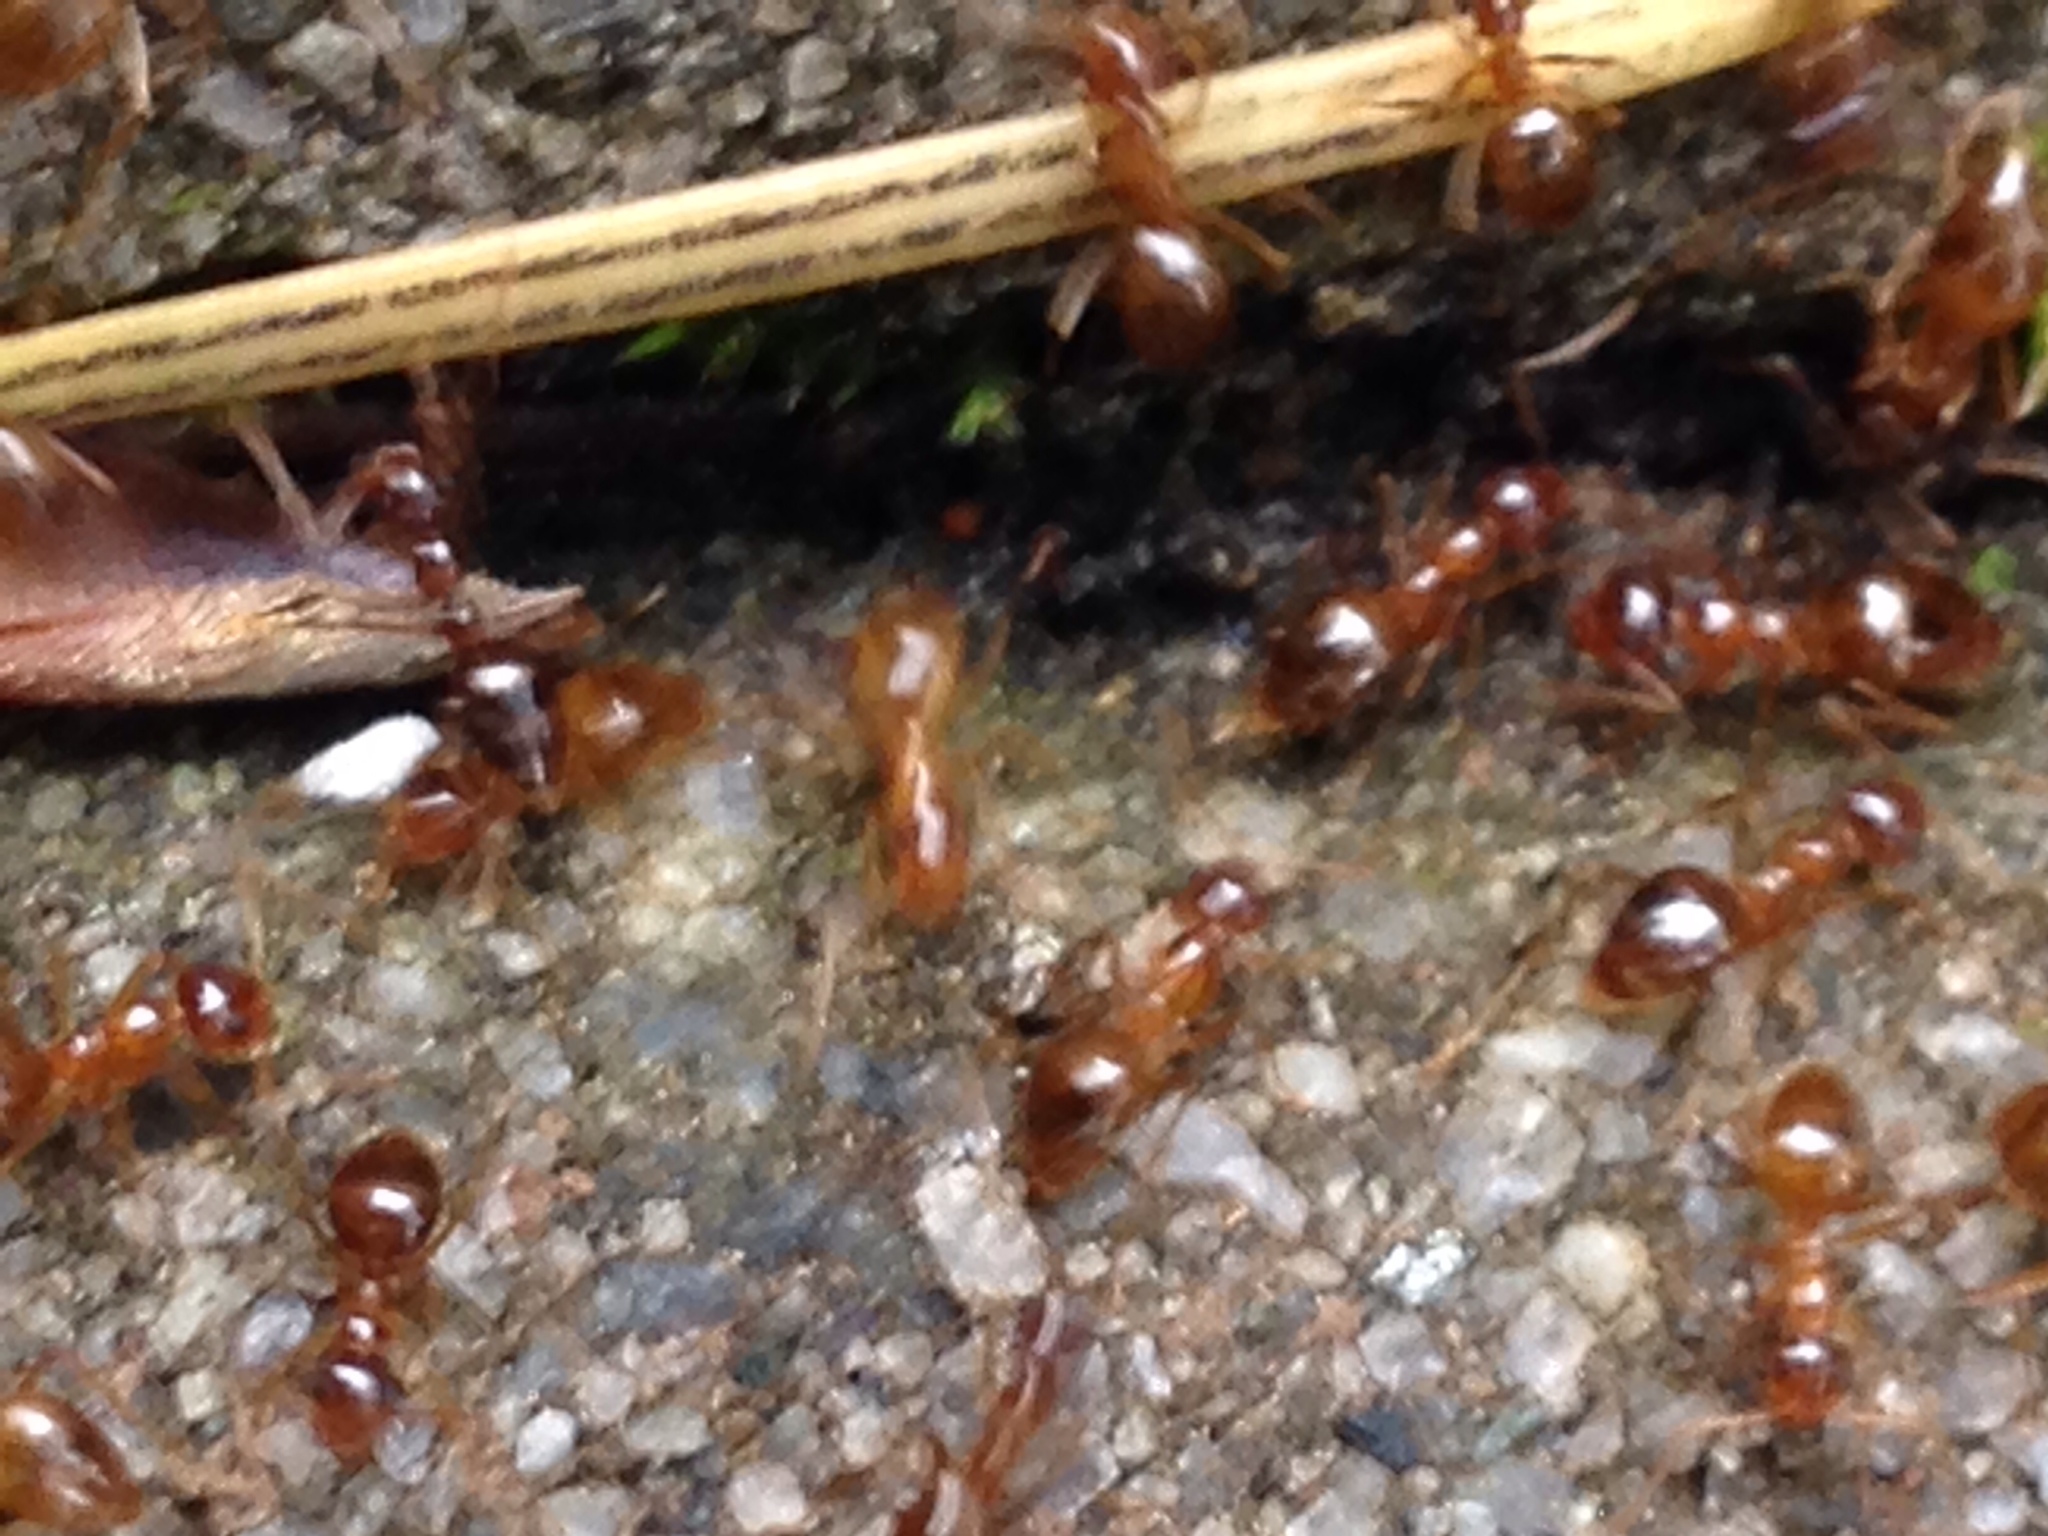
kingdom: Animalia
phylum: Arthropoda
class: Insecta
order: Hymenoptera
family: Formicidae
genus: Prenolepis
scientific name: Prenolepis imparis
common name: Small honey ant
